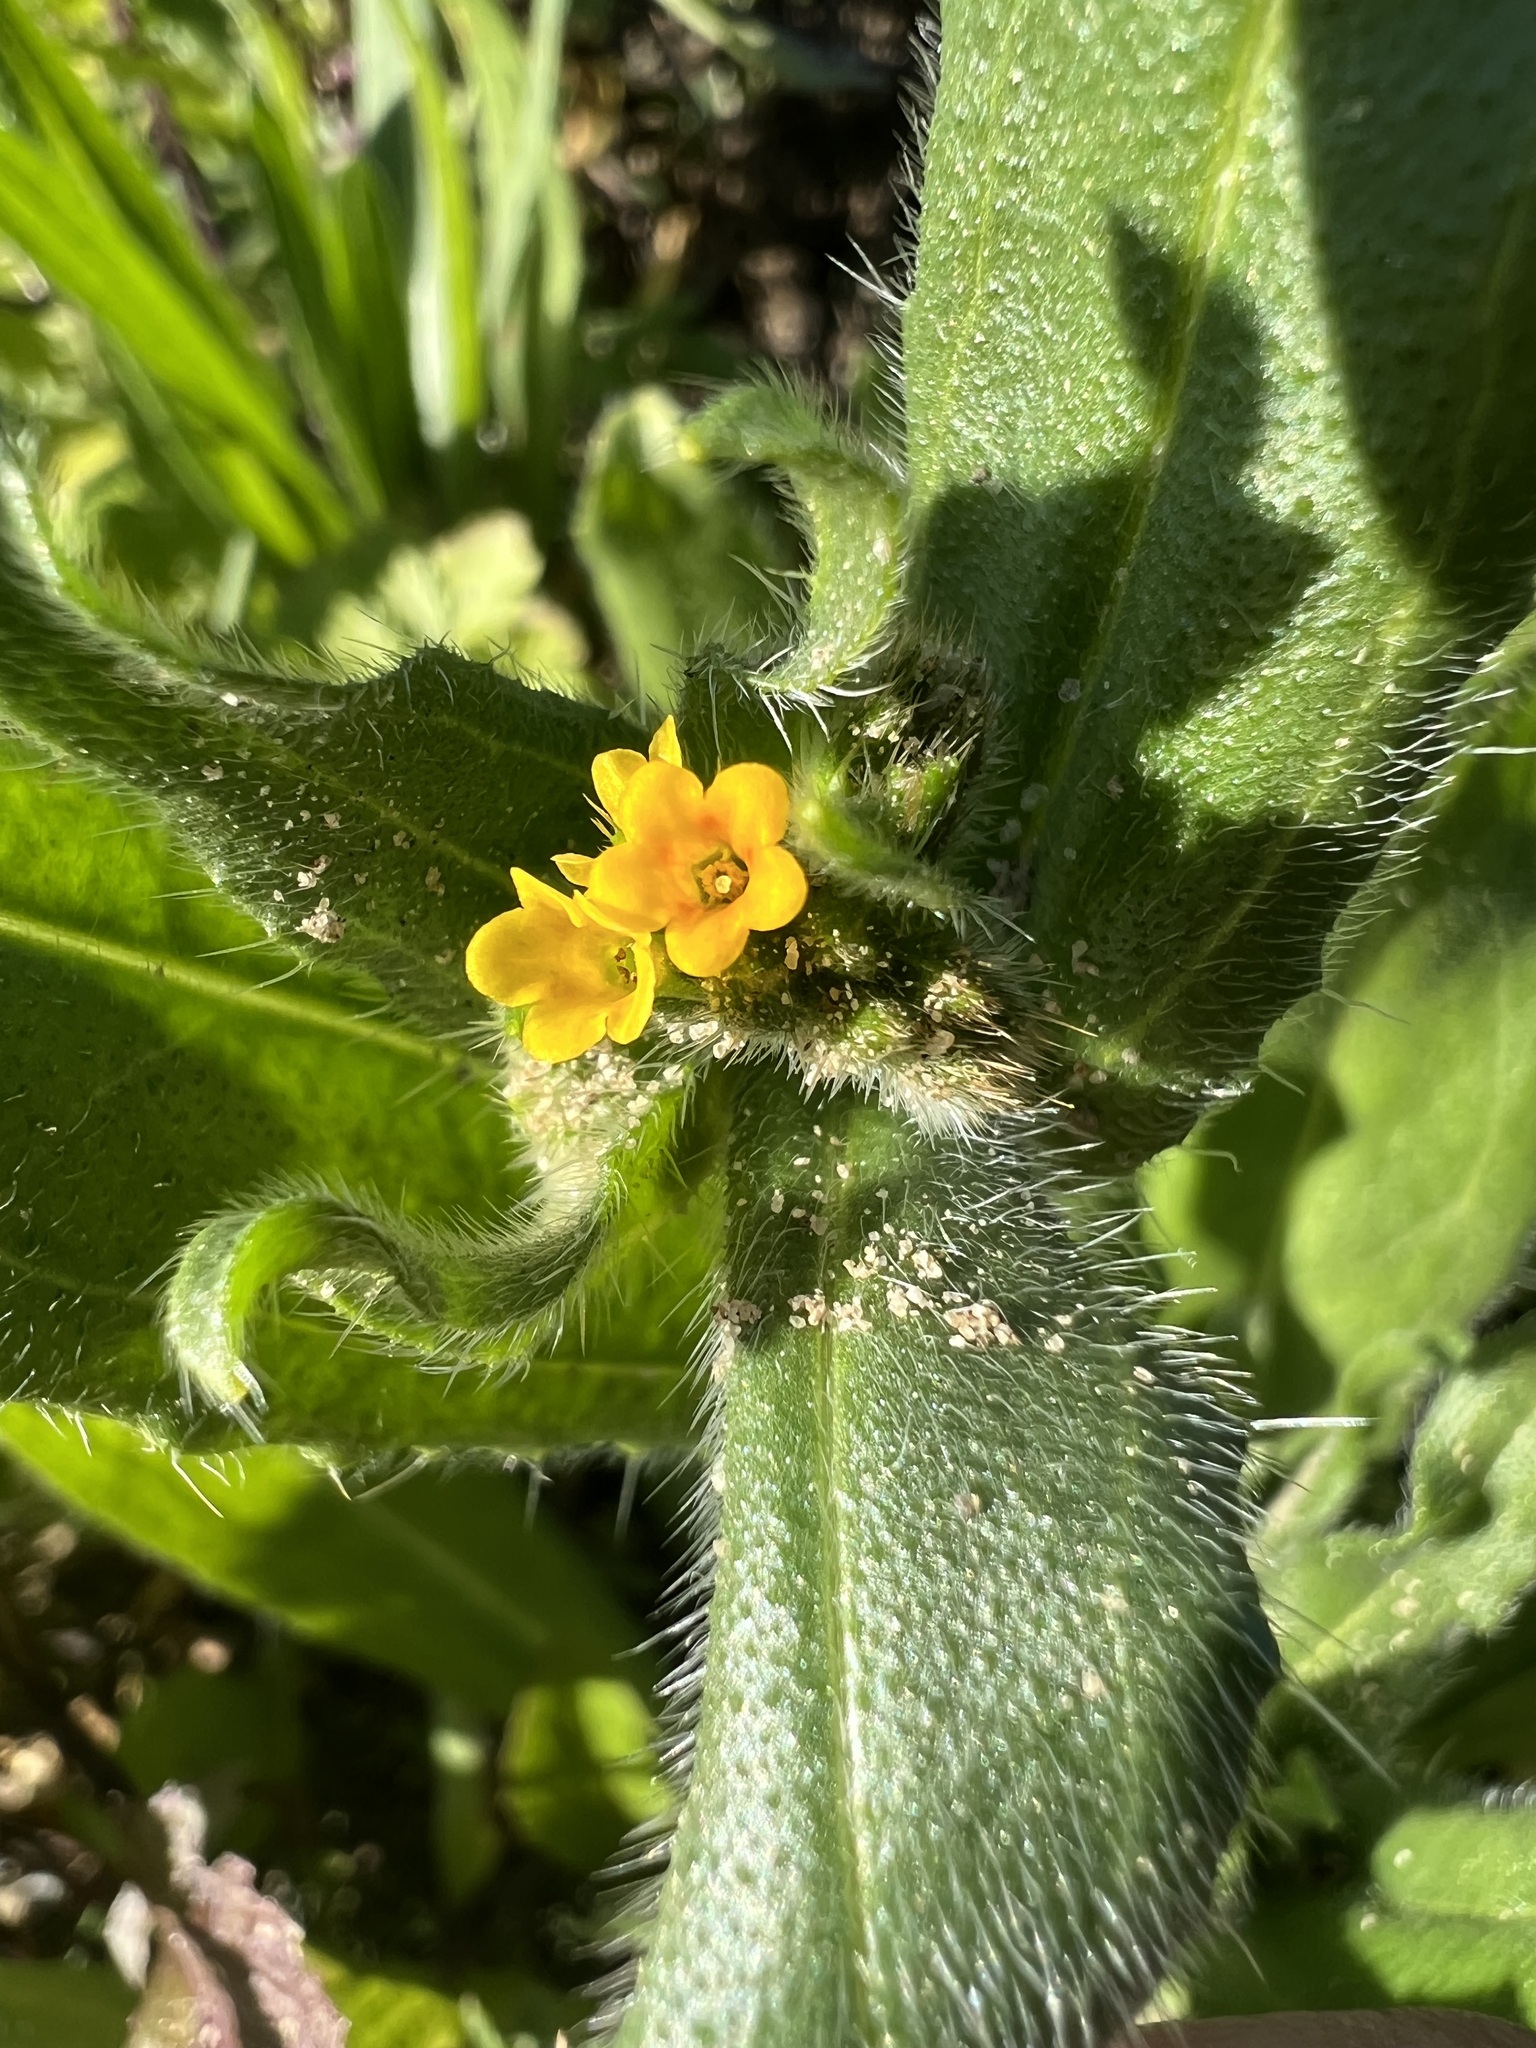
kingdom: Plantae
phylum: Tracheophyta
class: Magnoliopsida
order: Boraginales
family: Boraginaceae
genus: Amsinckia
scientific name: Amsinckia menziesii
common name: Menzies' fiddleneck
